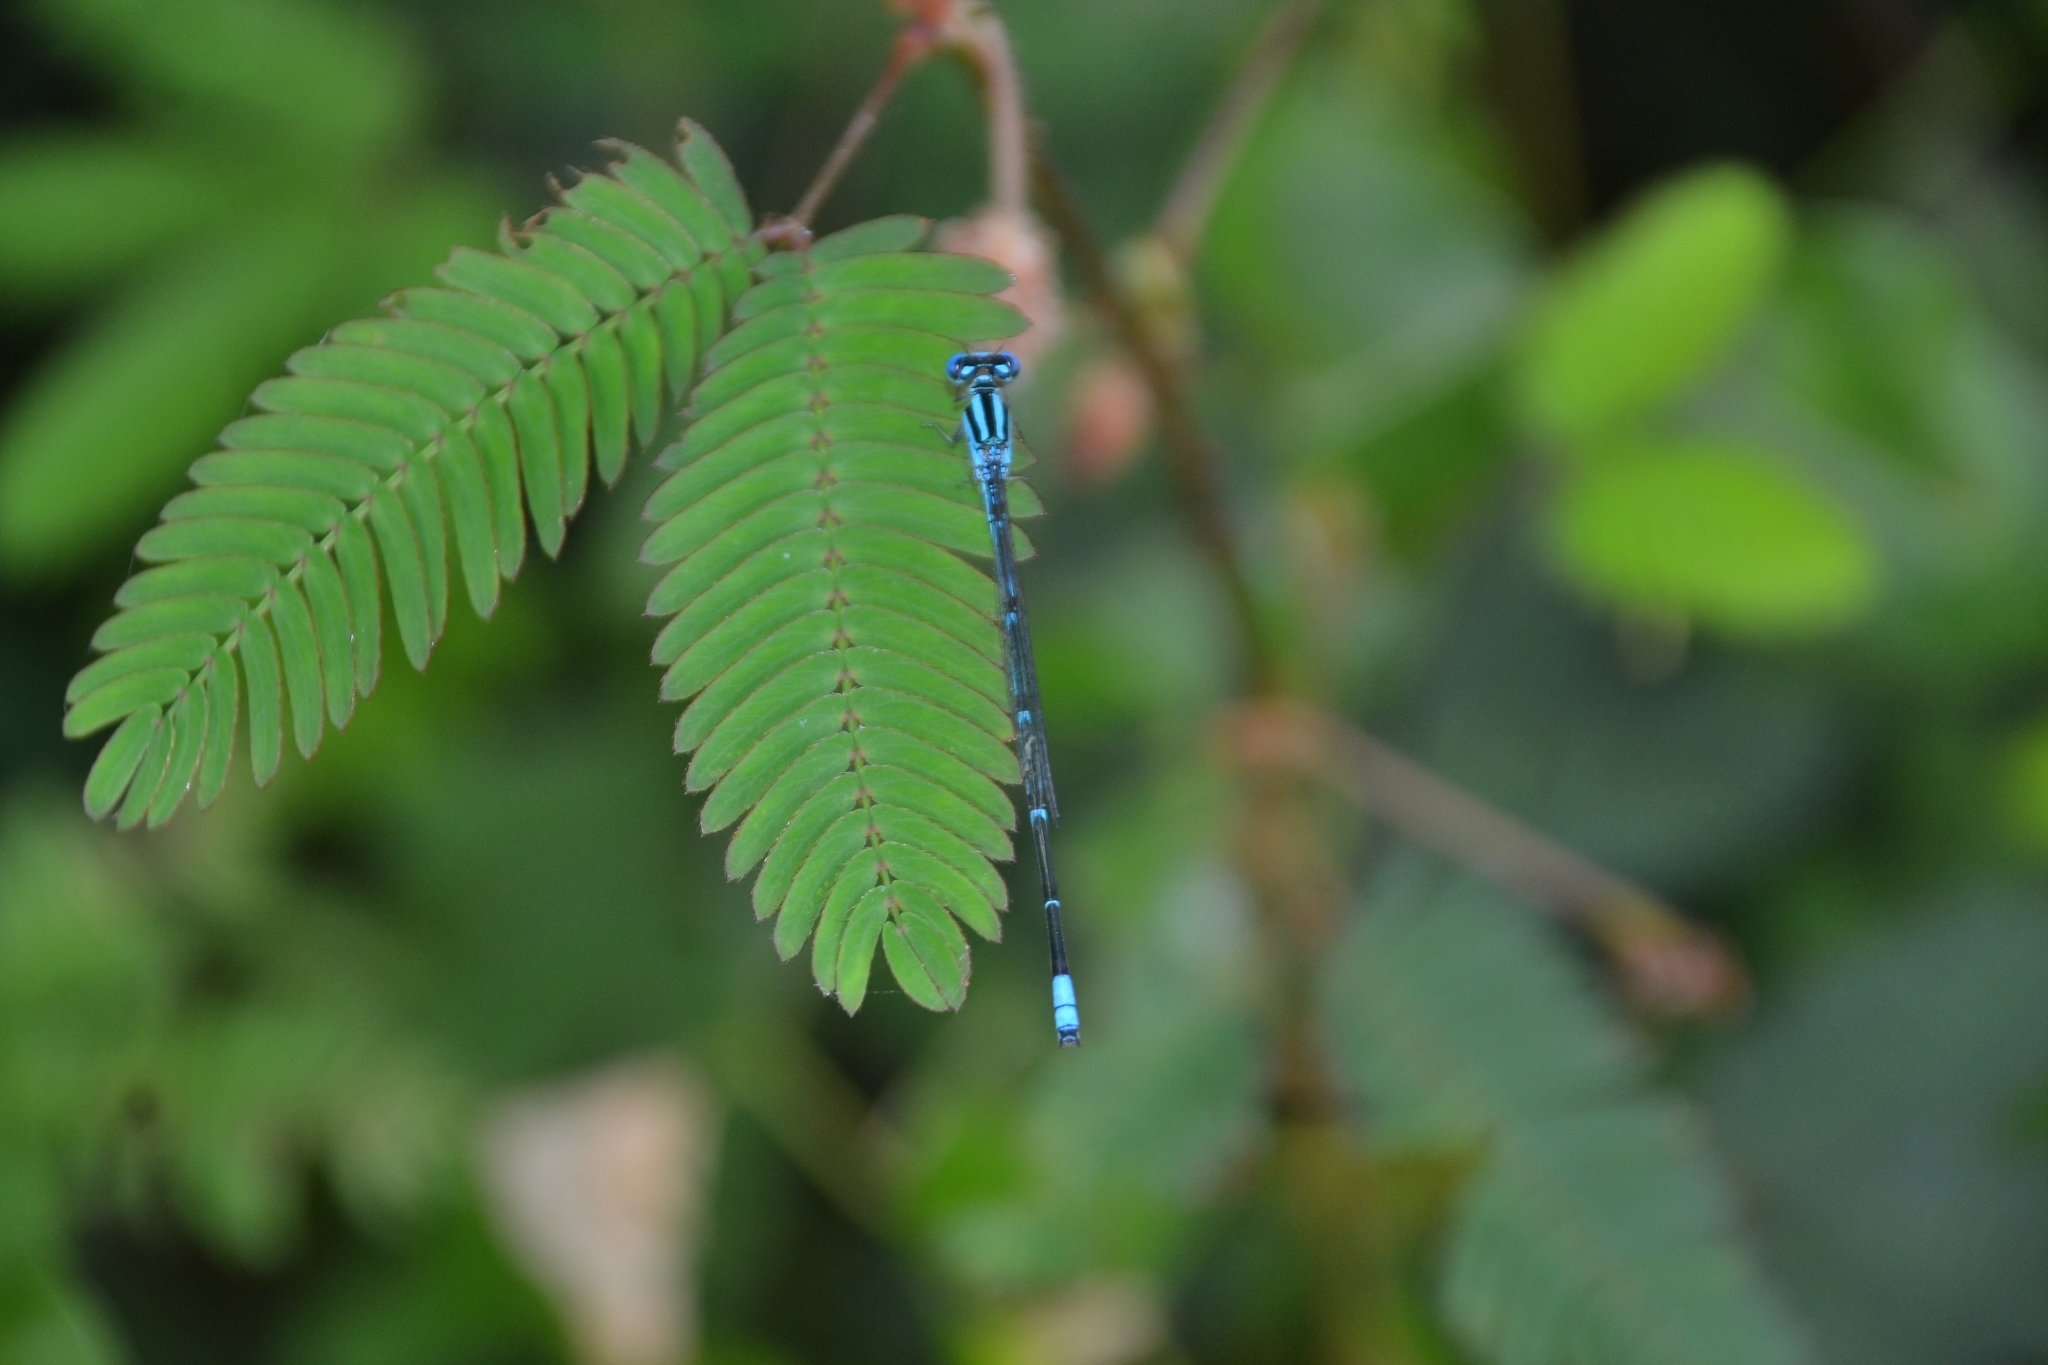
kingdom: Animalia
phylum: Arthropoda
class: Insecta
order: Odonata
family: Coenagrionidae
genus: Pseudagrion
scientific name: Pseudagrion malabaricum
